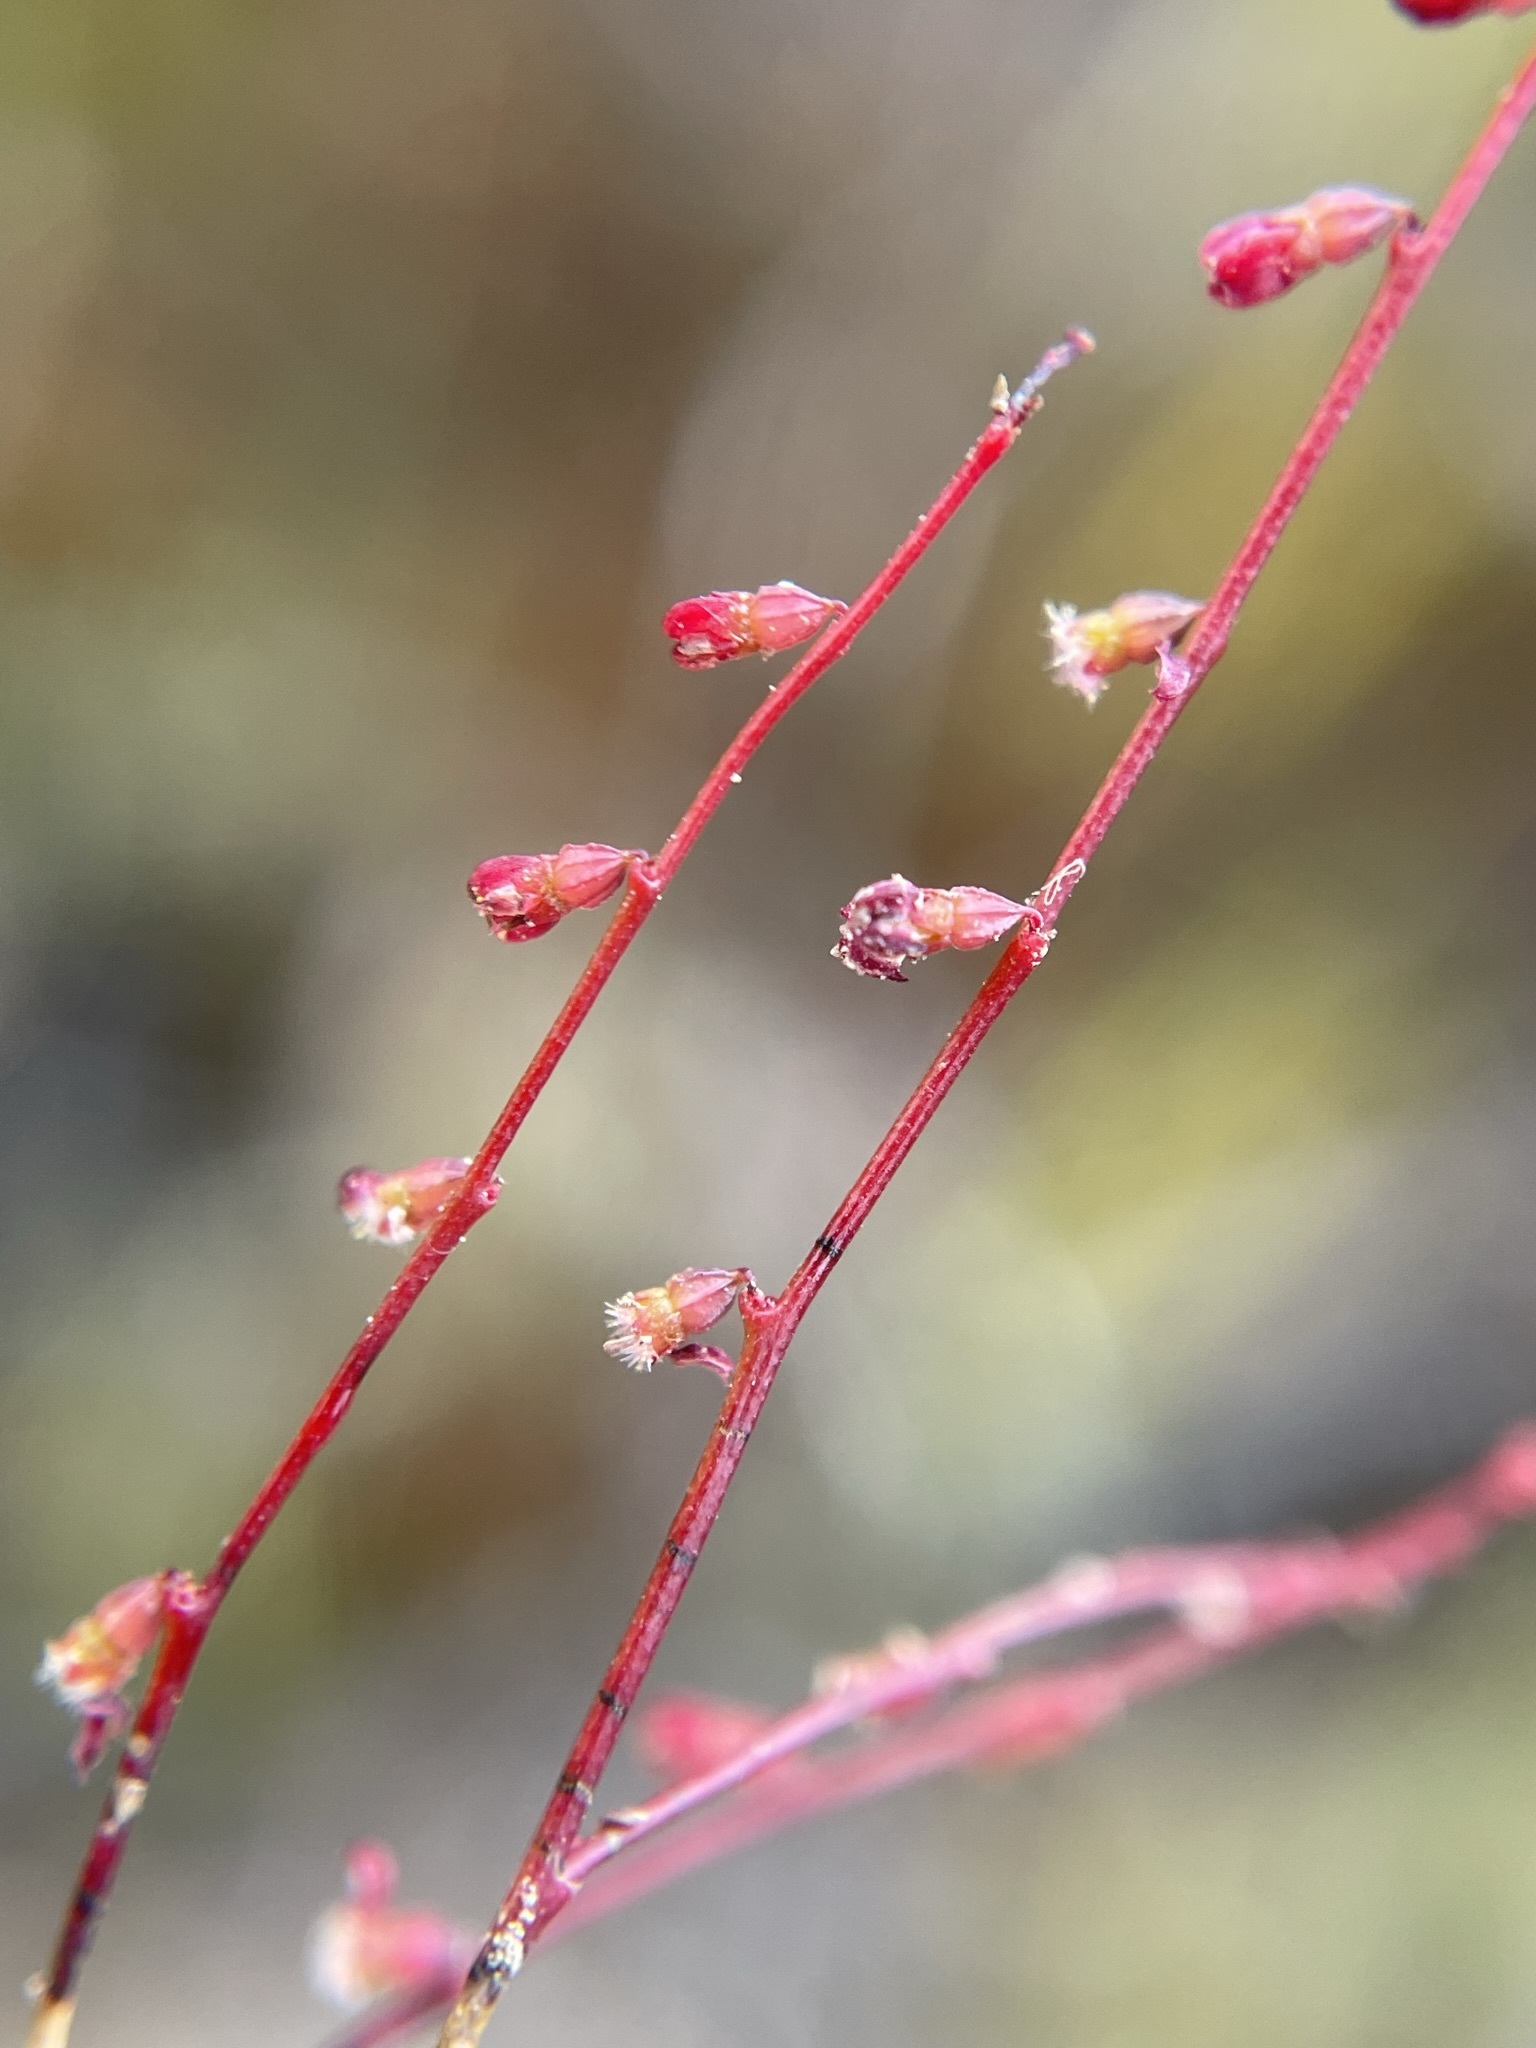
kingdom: Plantae
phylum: Tracheophyta
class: Magnoliopsida
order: Saxifragales
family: Haloragaceae
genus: Gonocarpus
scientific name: Gonocarpus micranthus
